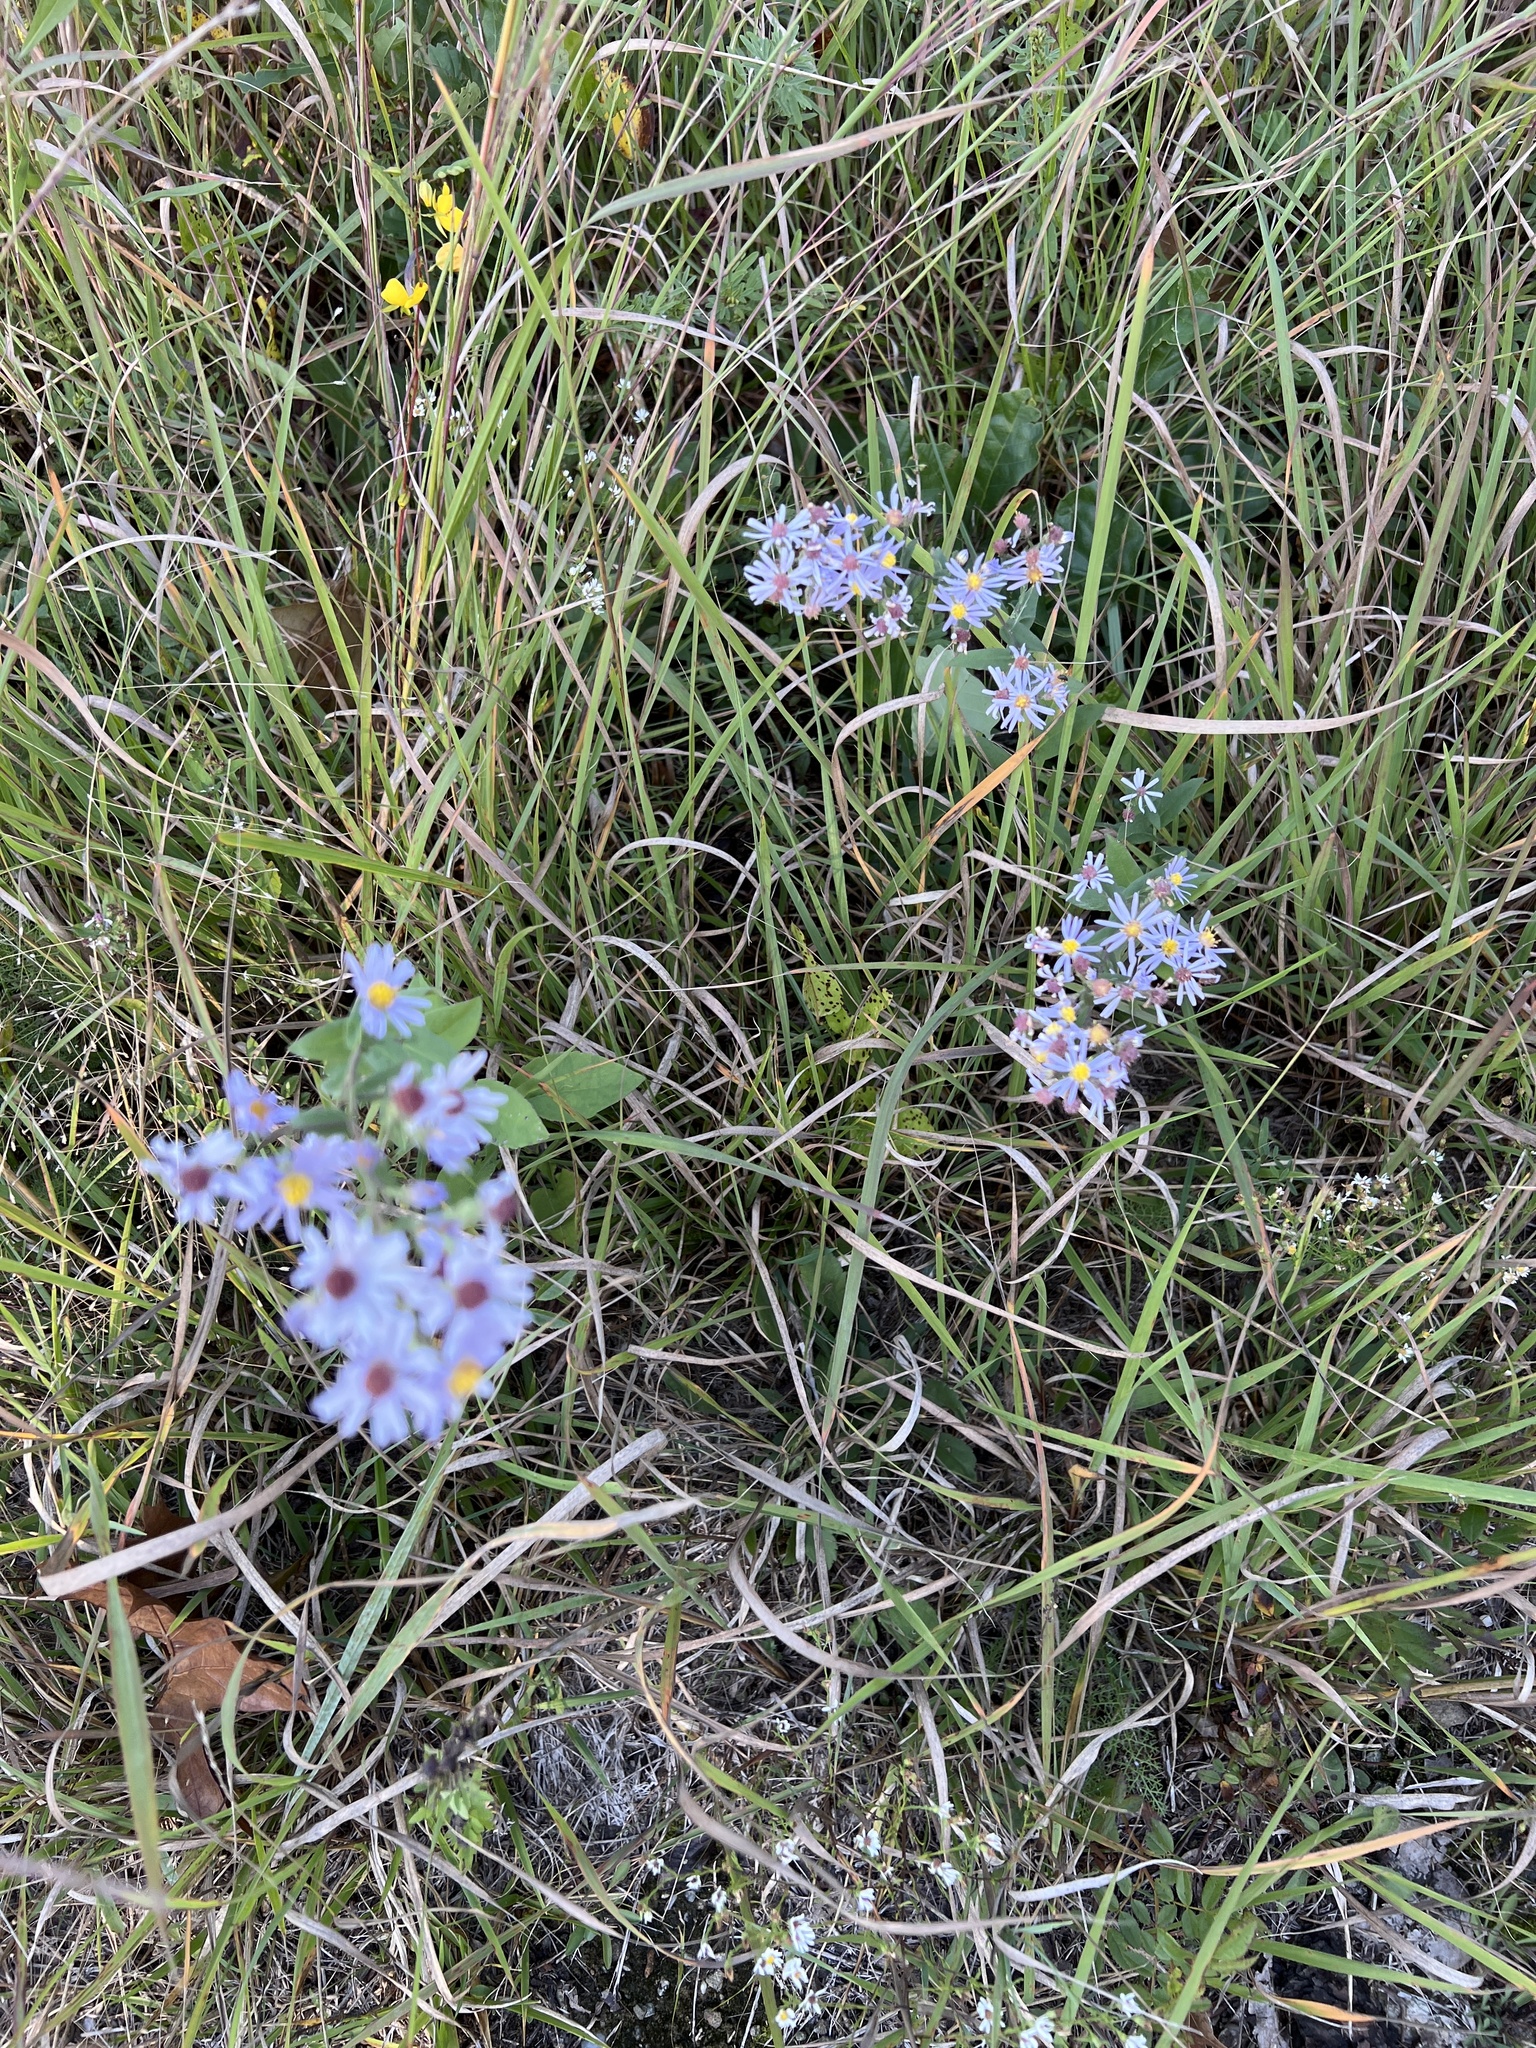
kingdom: Plantae
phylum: Tracheophyta
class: Magnoliopsida
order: Asterales
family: Asteraceae
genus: Symphyotrichum
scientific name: Symphyotrichum undulatum
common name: Clasping heart-leaf aster
